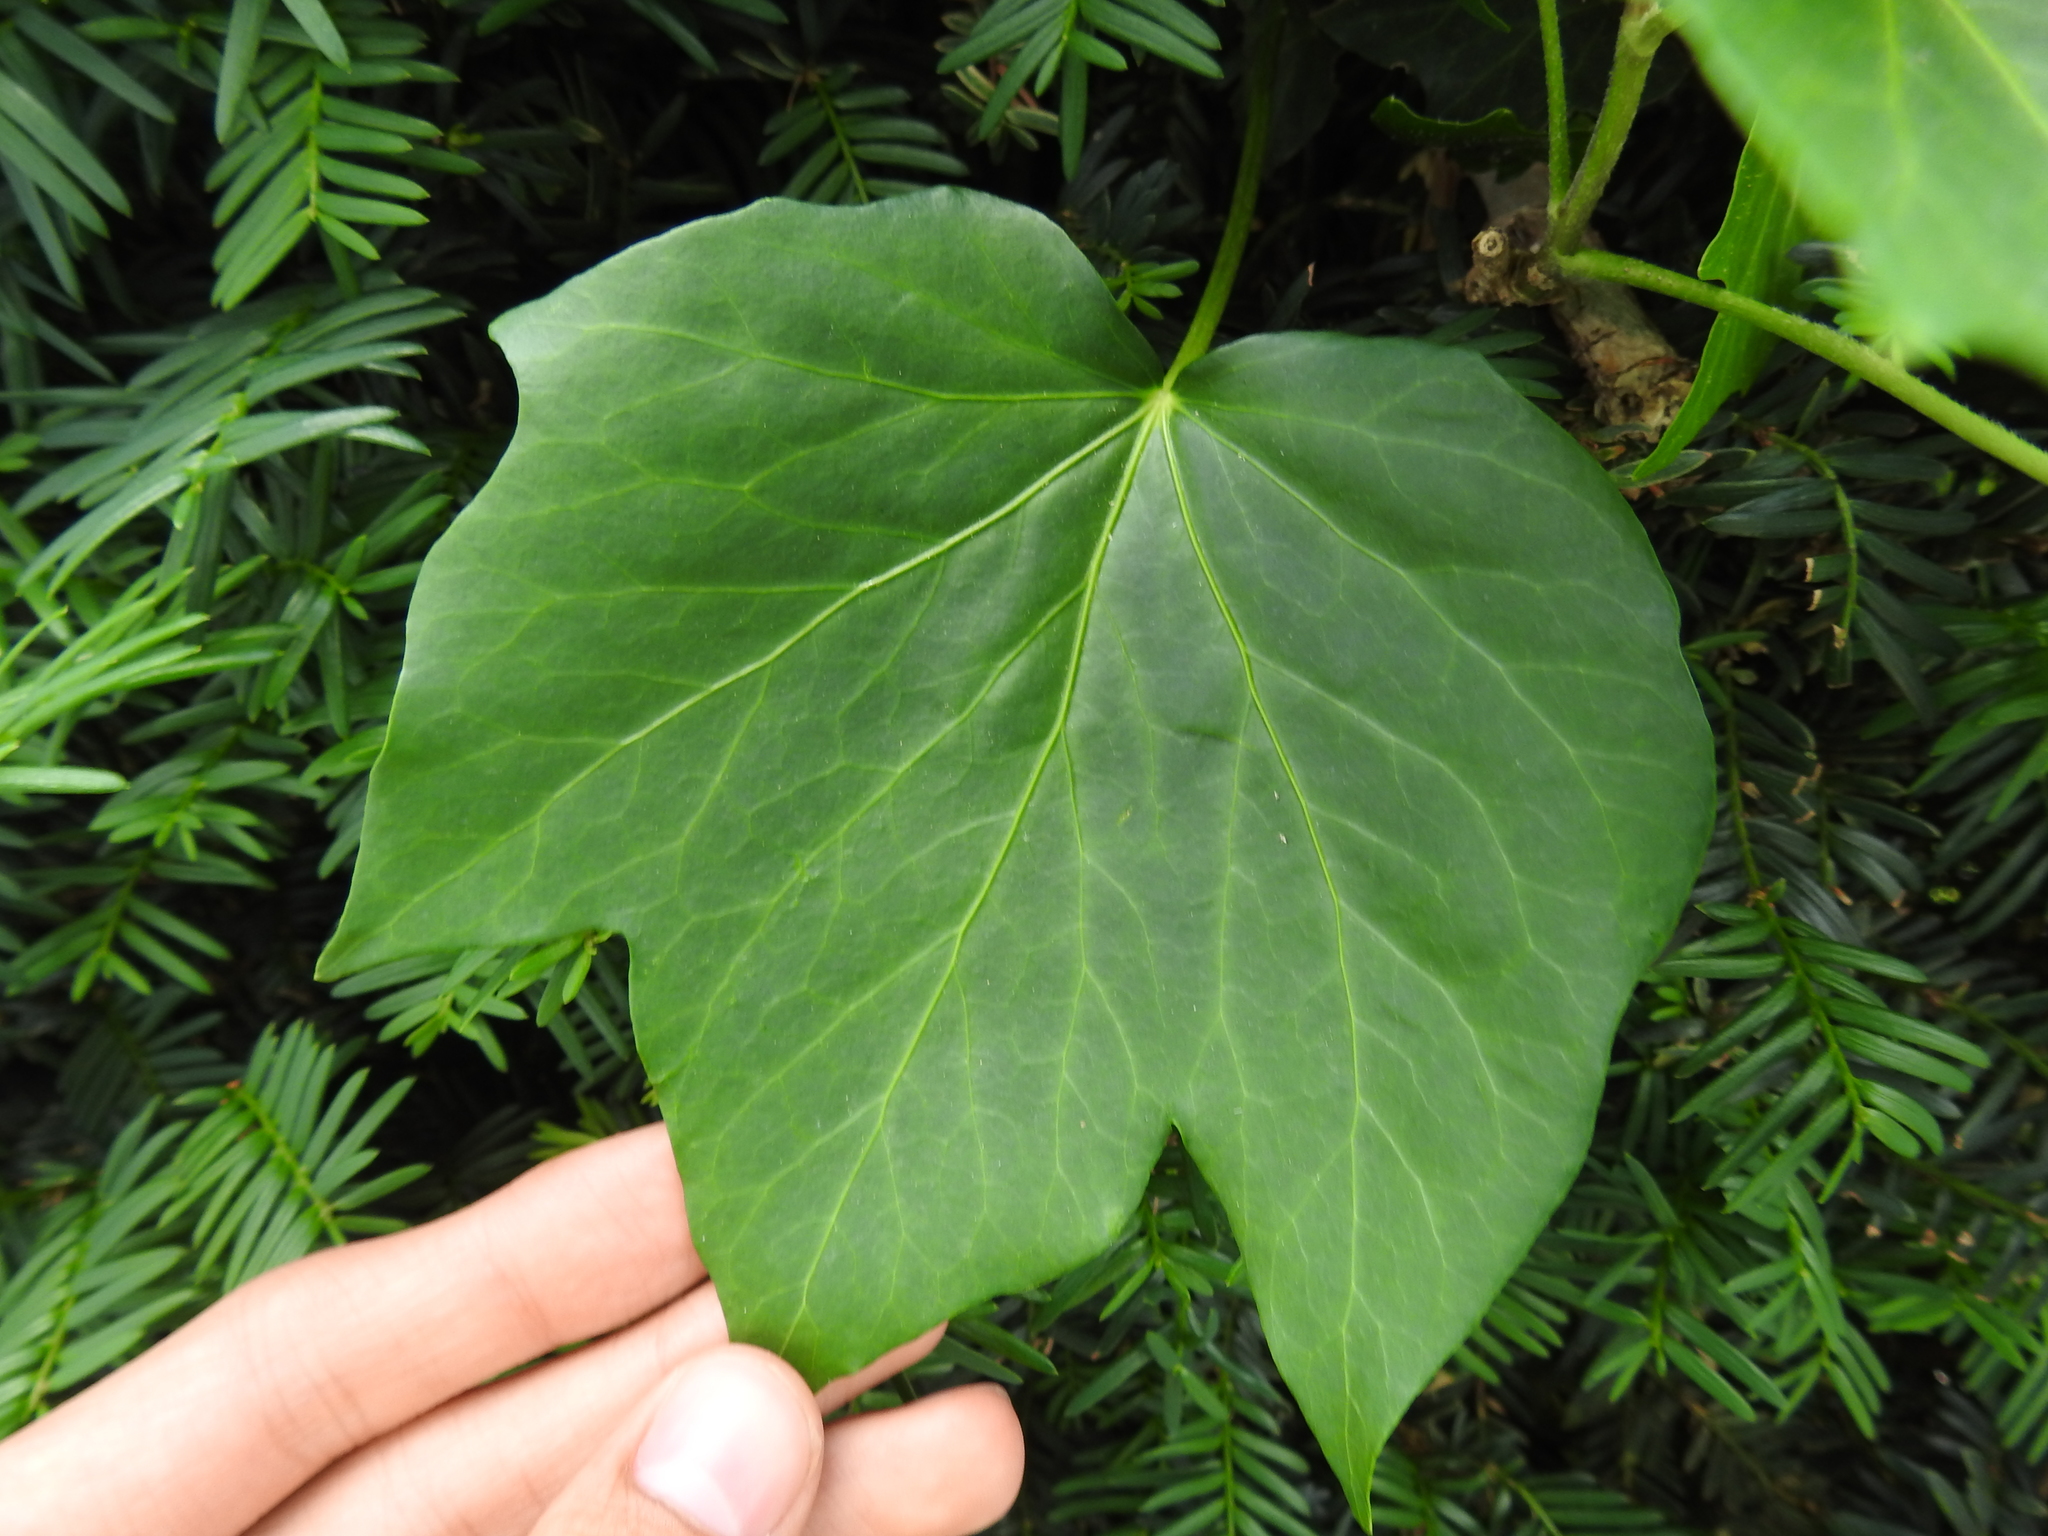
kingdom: Plantae
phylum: Tracheophyta
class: Magnoliopsida
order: Apiales
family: Araliaceae
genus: Hedera
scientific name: Hedera helix
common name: Ivy
